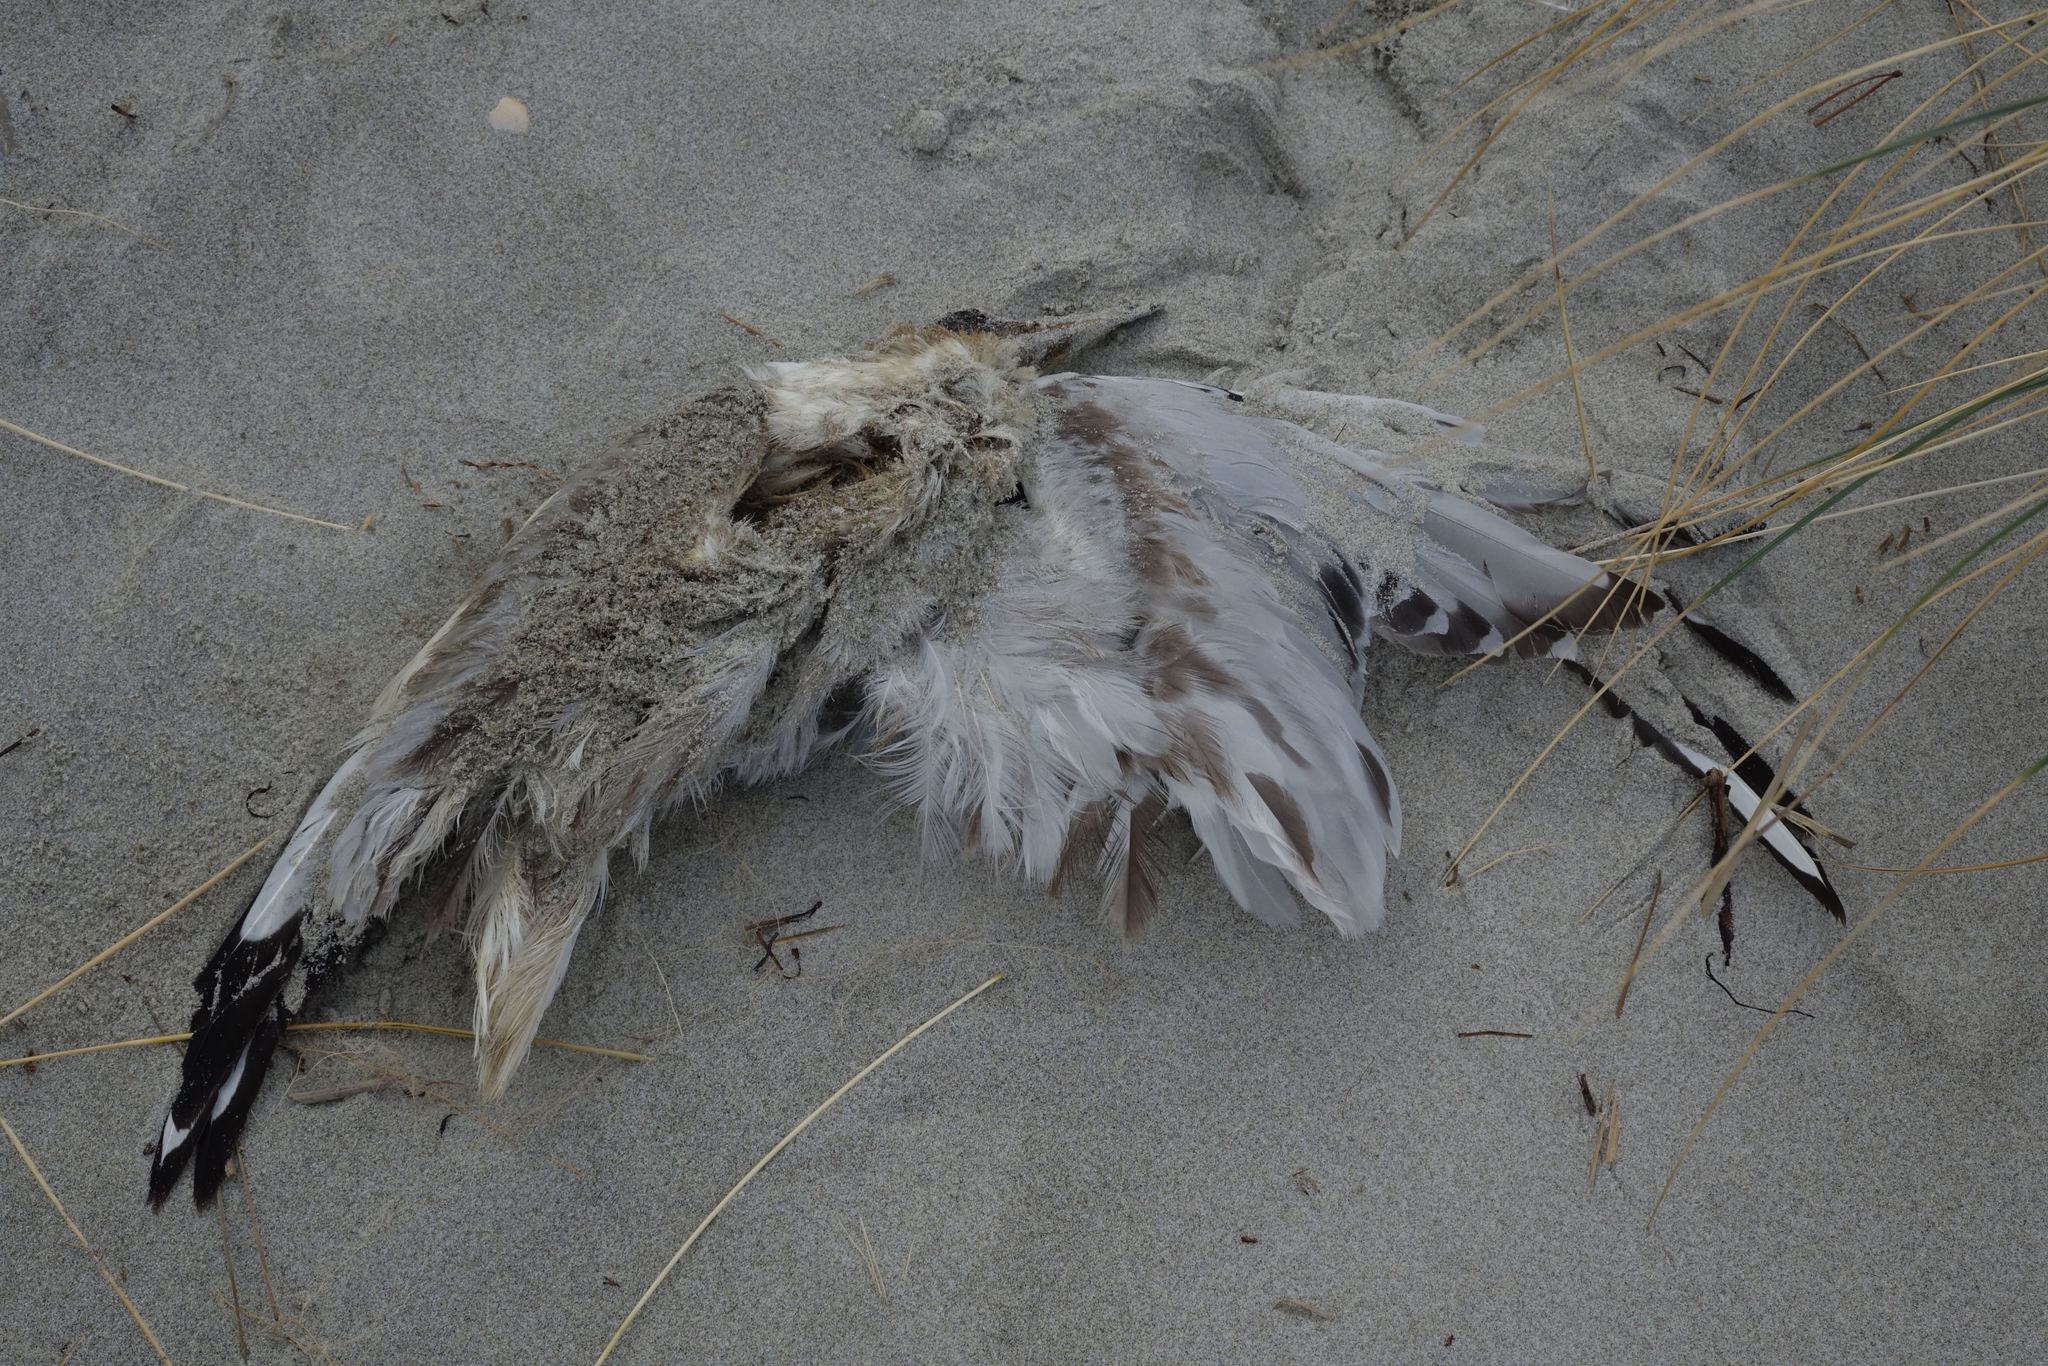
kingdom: Animalia
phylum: Chordata
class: Aves
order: Charadriiformes
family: Laridae
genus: Chroicocephalus
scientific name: Chroicocephalus novaehollandiae
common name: Silver gull
